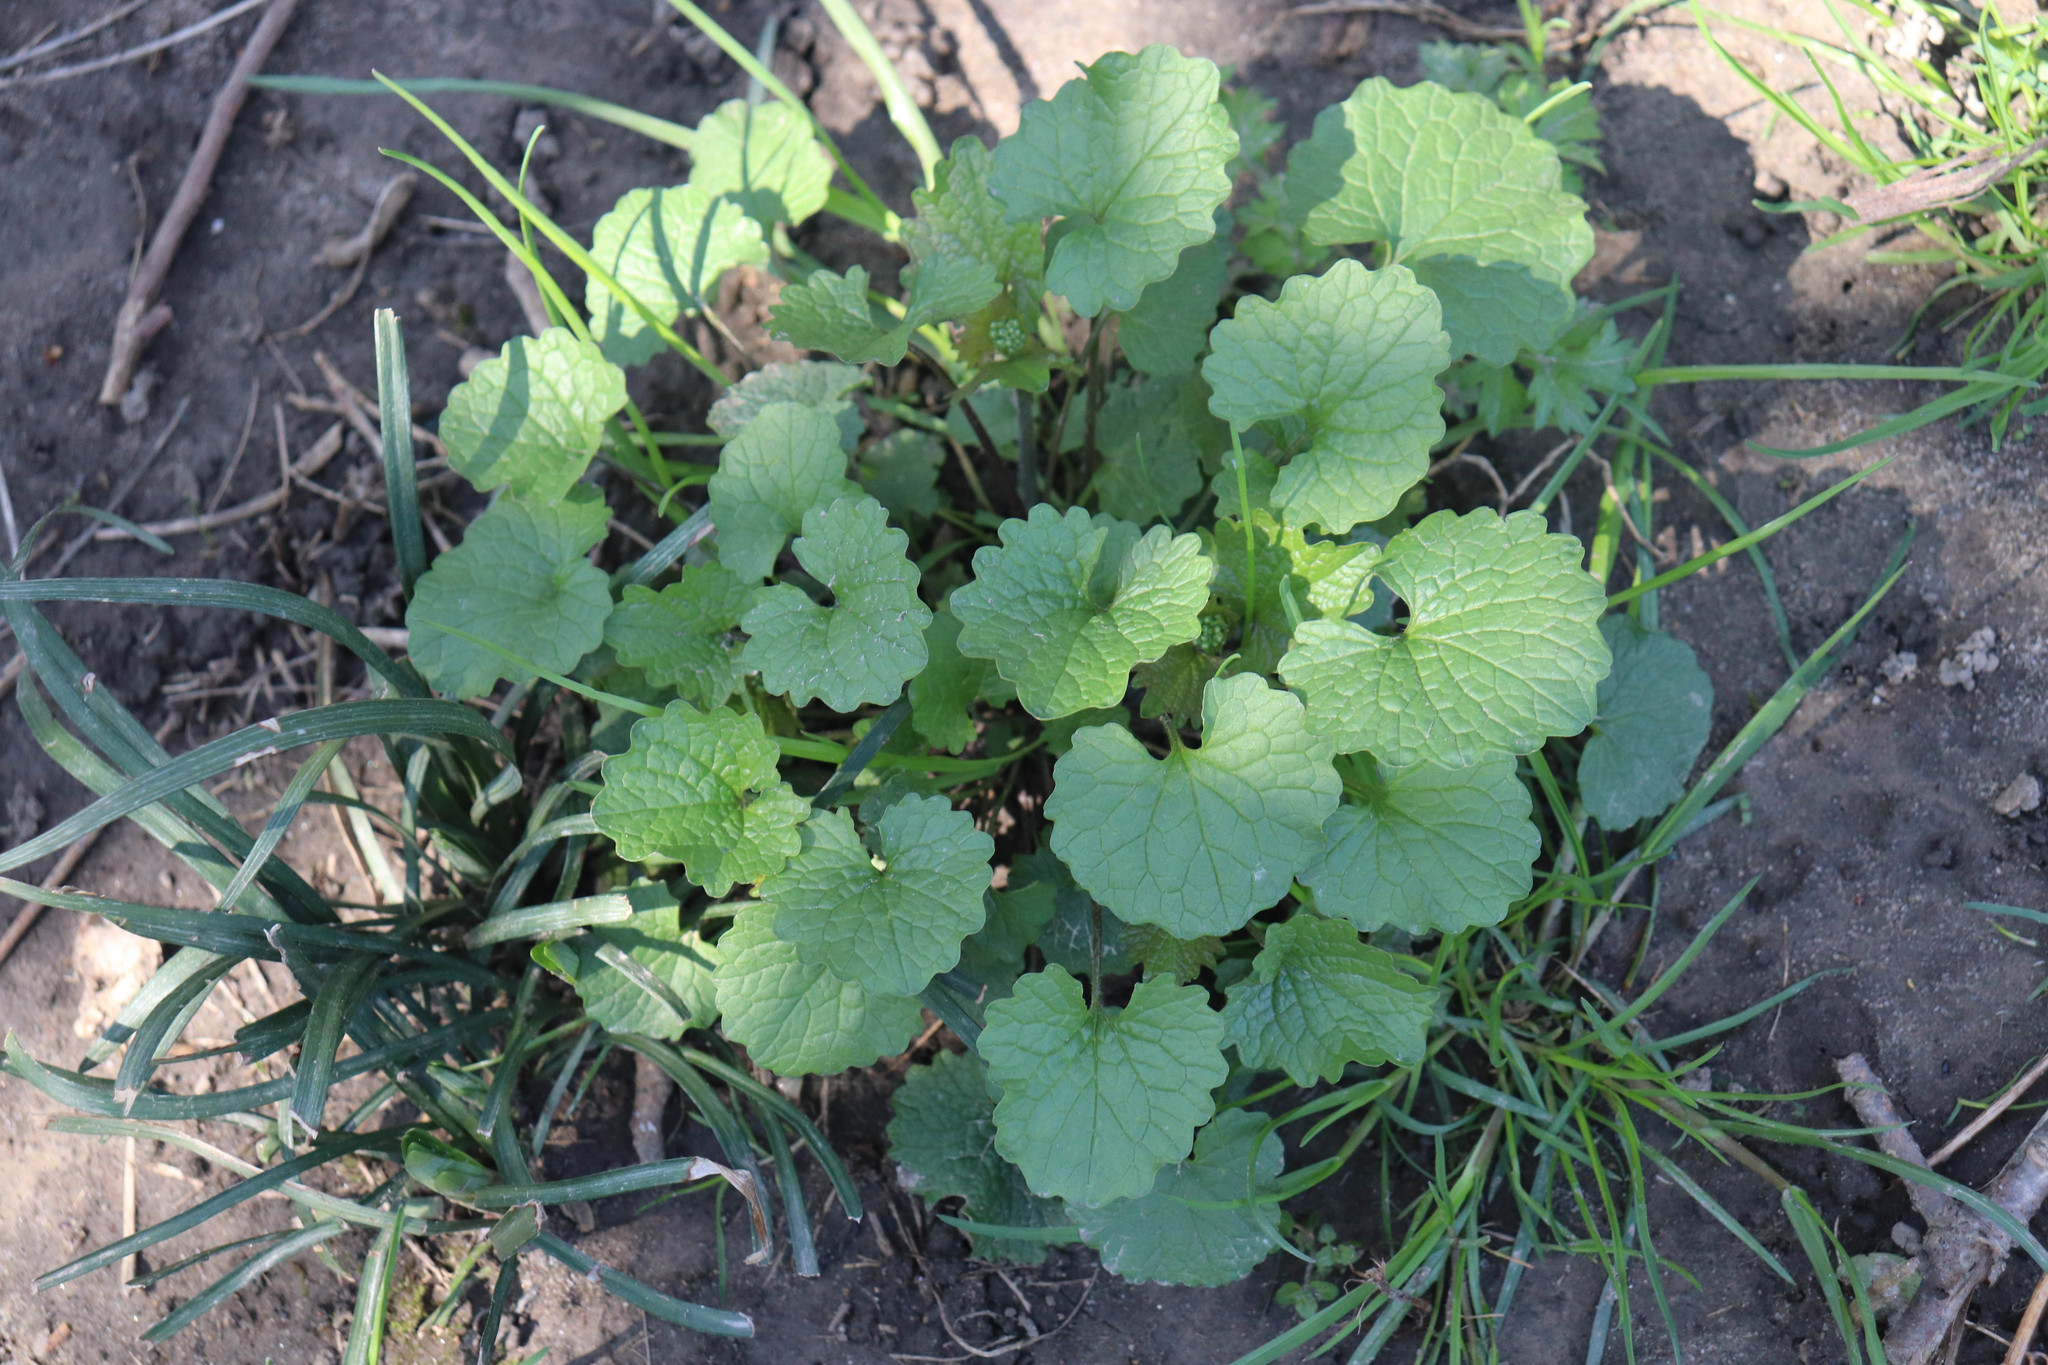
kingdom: Plantae
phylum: Tracheophyta
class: Magnoliopsida
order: Brassicales
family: Brassicaceae
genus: Alliaria
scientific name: Alliaria petiolata
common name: Garlic mustard
